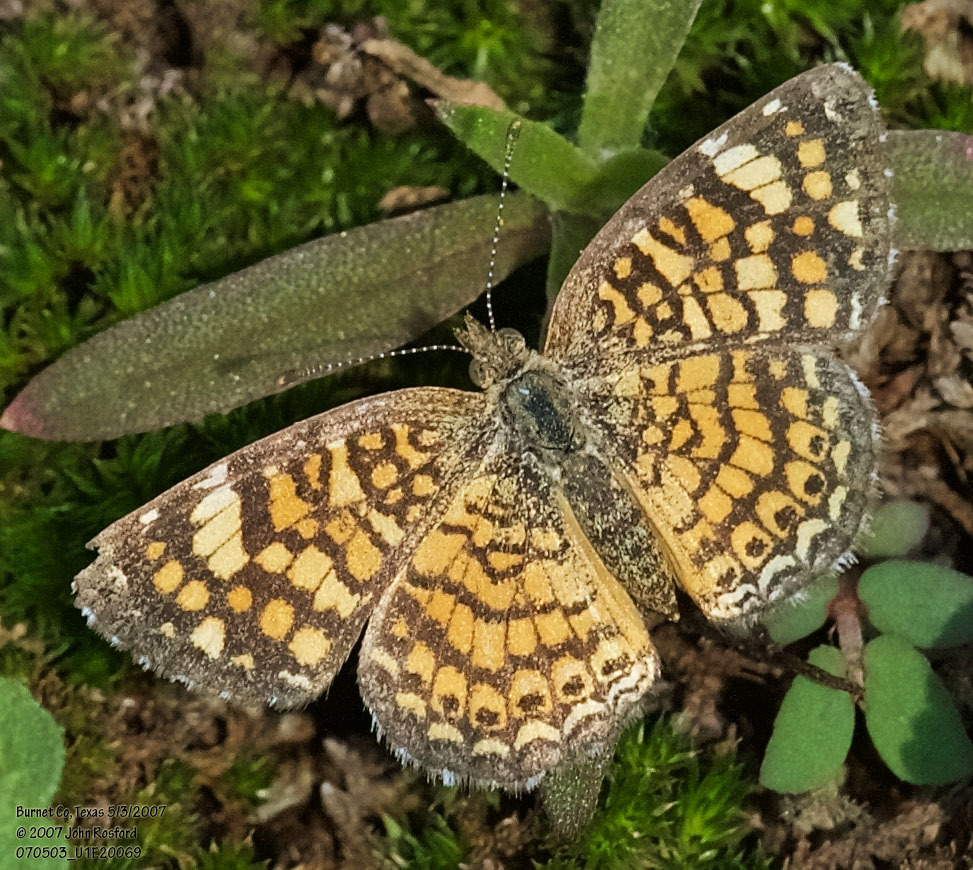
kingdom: Animalia
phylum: Arthropoda
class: Insecta
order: Lepidoptera
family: Nymphalidae
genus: Phyciodes
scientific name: Phyciodes vesta
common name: Vesta crescent
